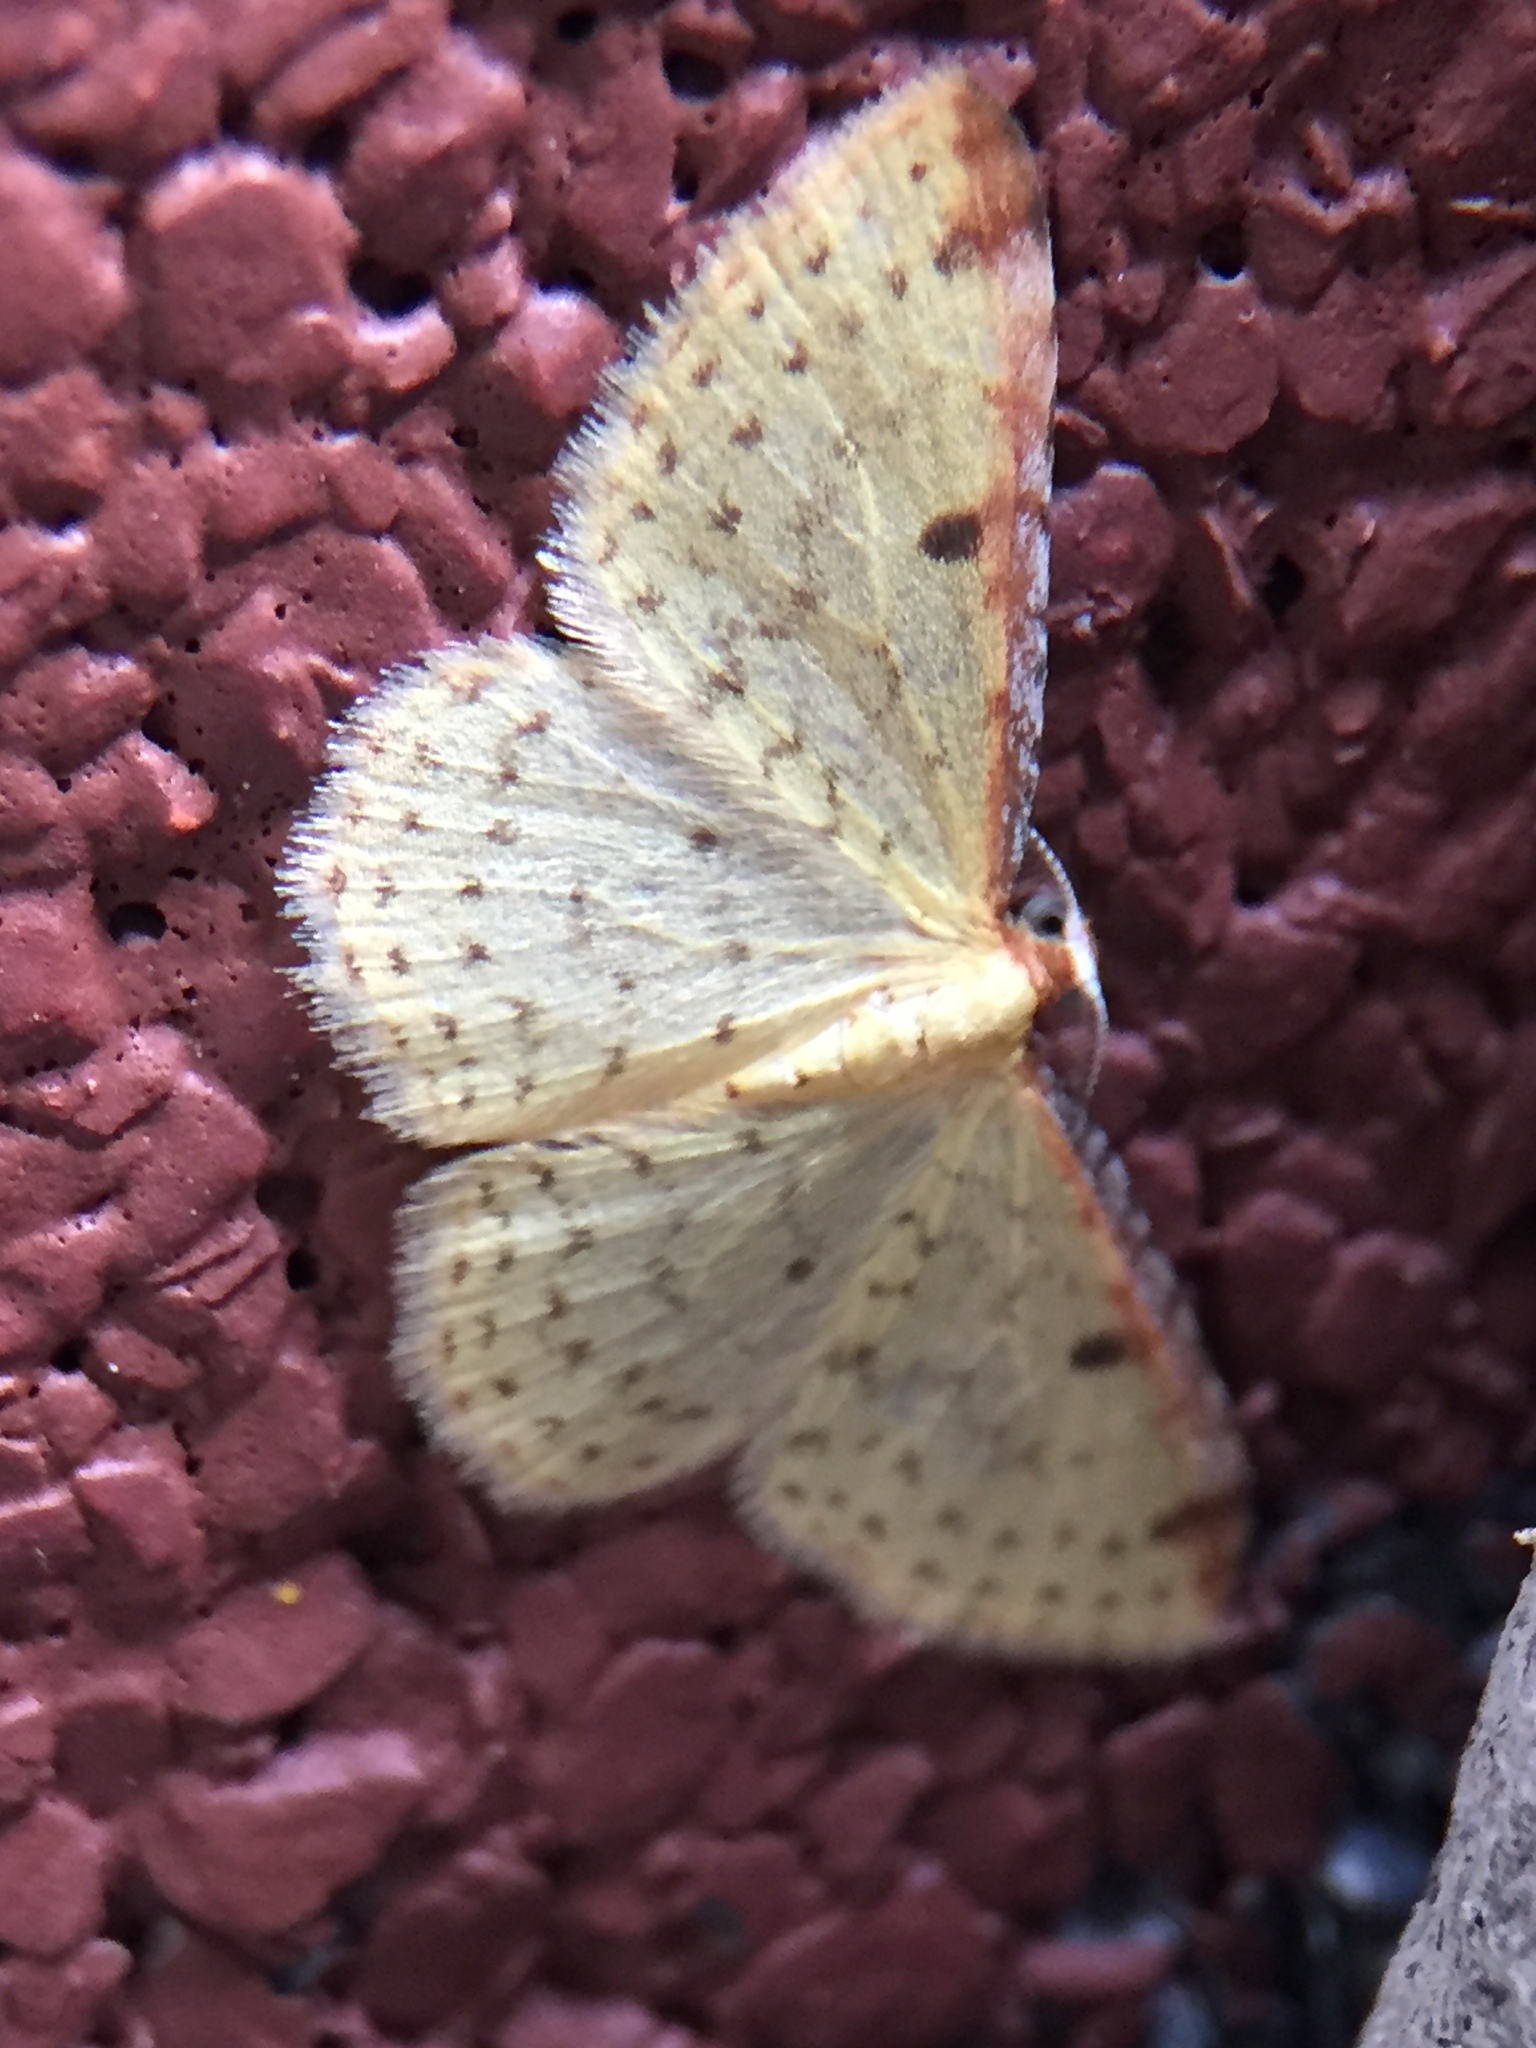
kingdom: Animalia
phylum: Arthropoda
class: Insecta
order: Lepidoptera
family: Geometridae
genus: Epiphryne
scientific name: Epiphryne undosata
